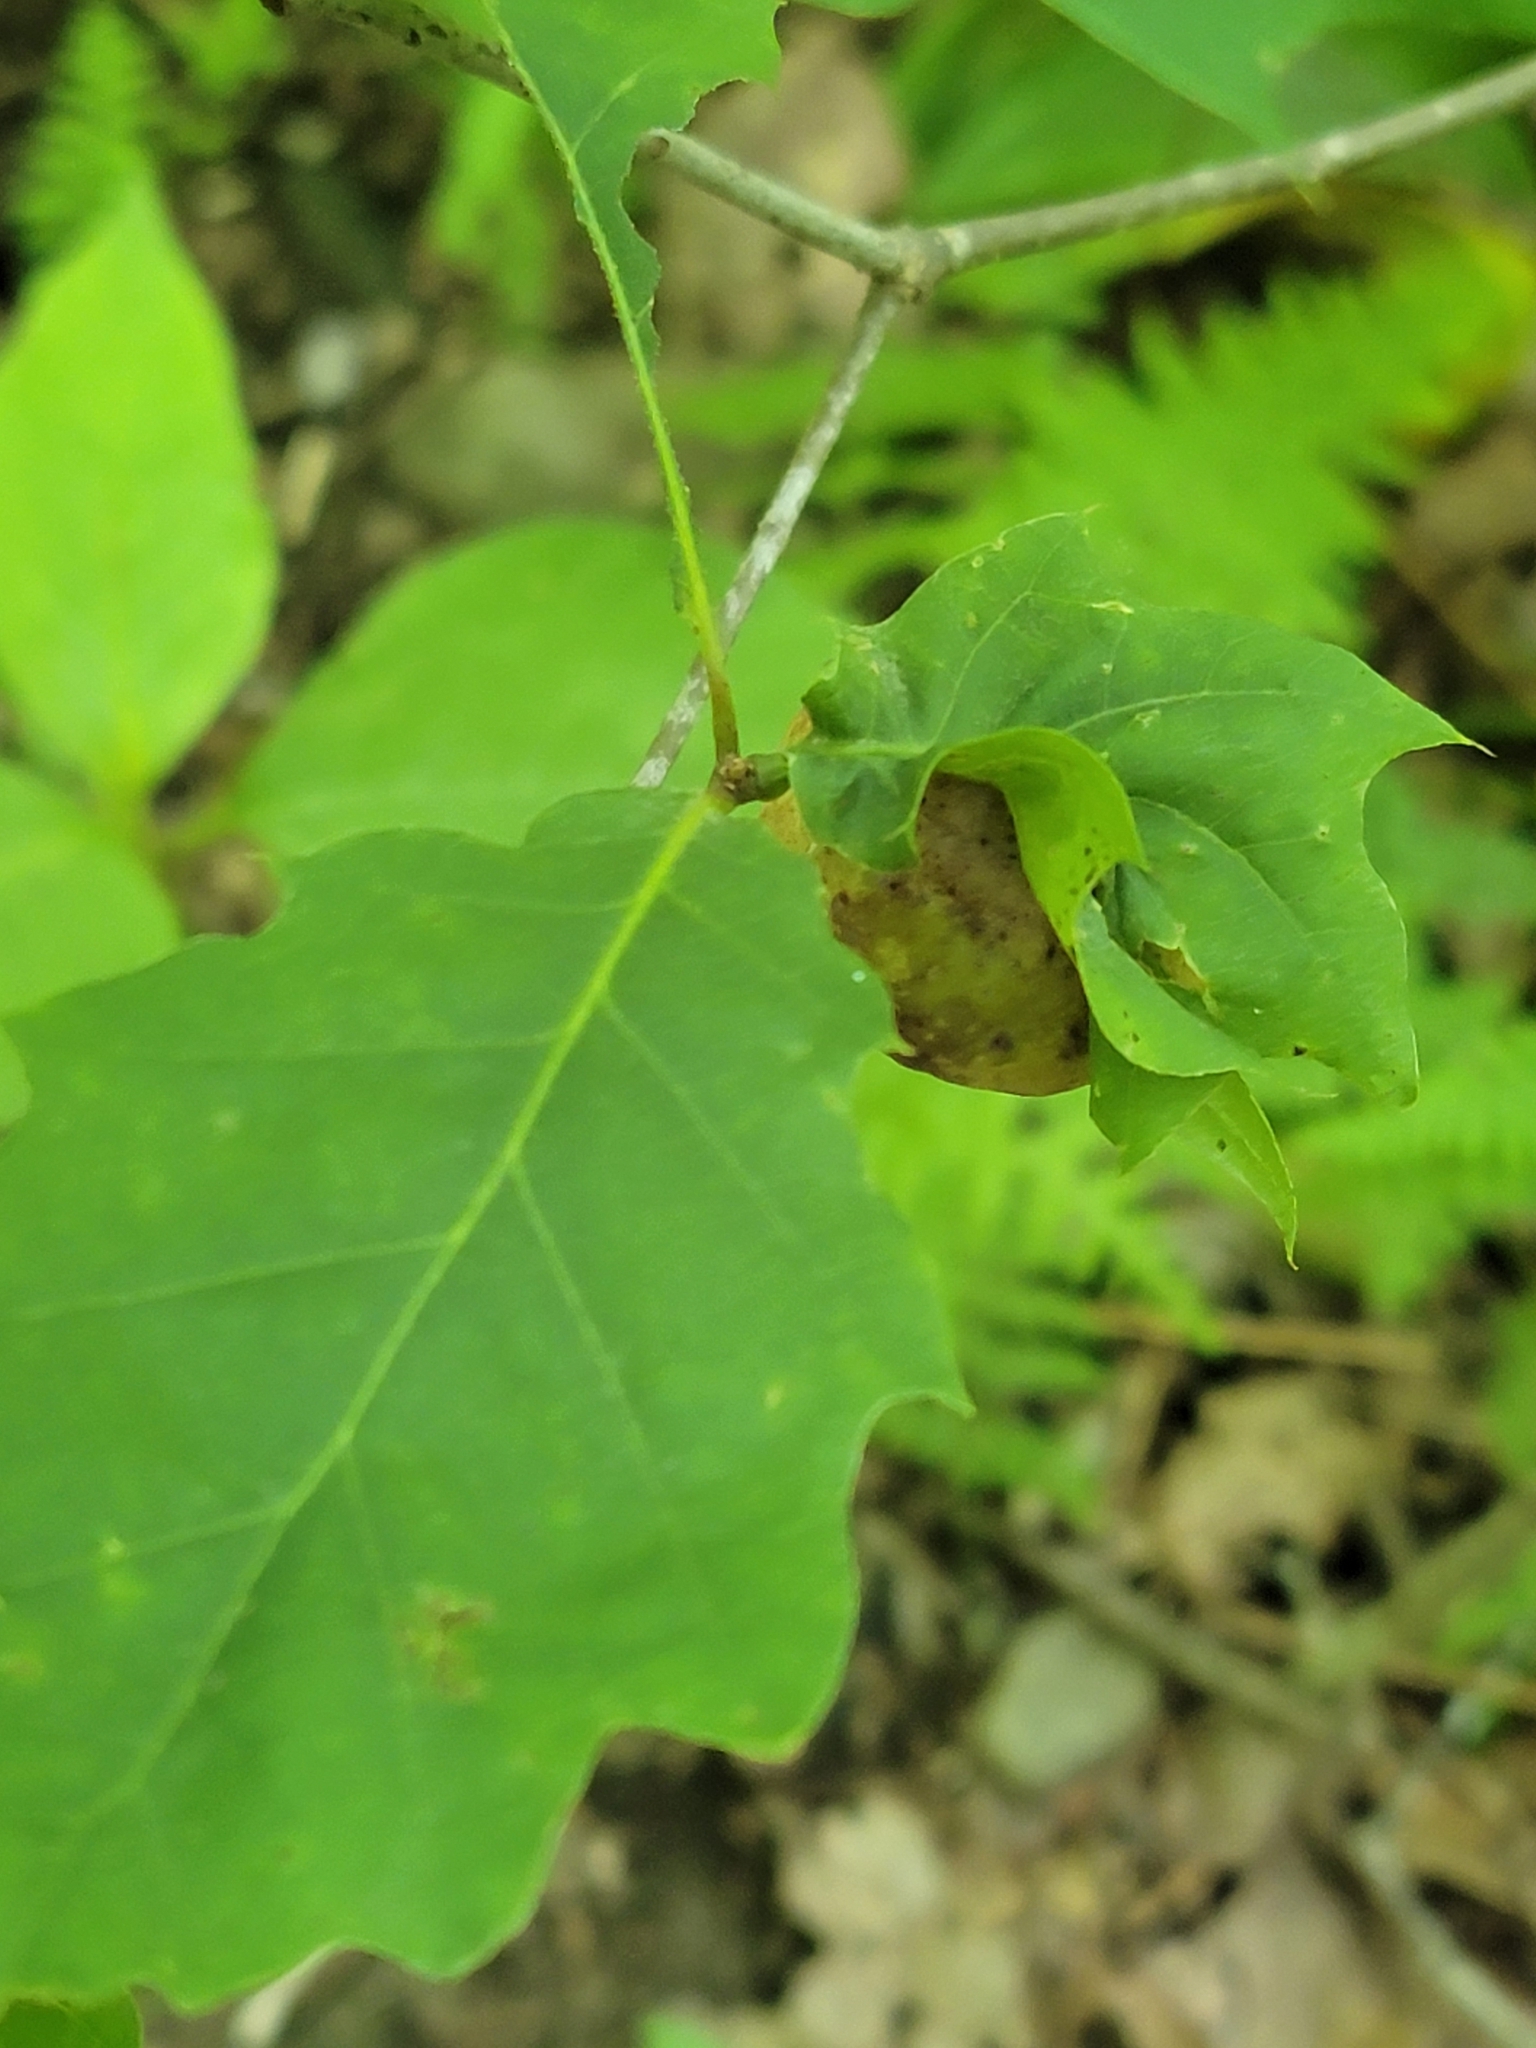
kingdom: Animalia
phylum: Arthropoda
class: Insecta
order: Hymenoptera
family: Cynipidae
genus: Amphibolips
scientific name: Amphibolips
